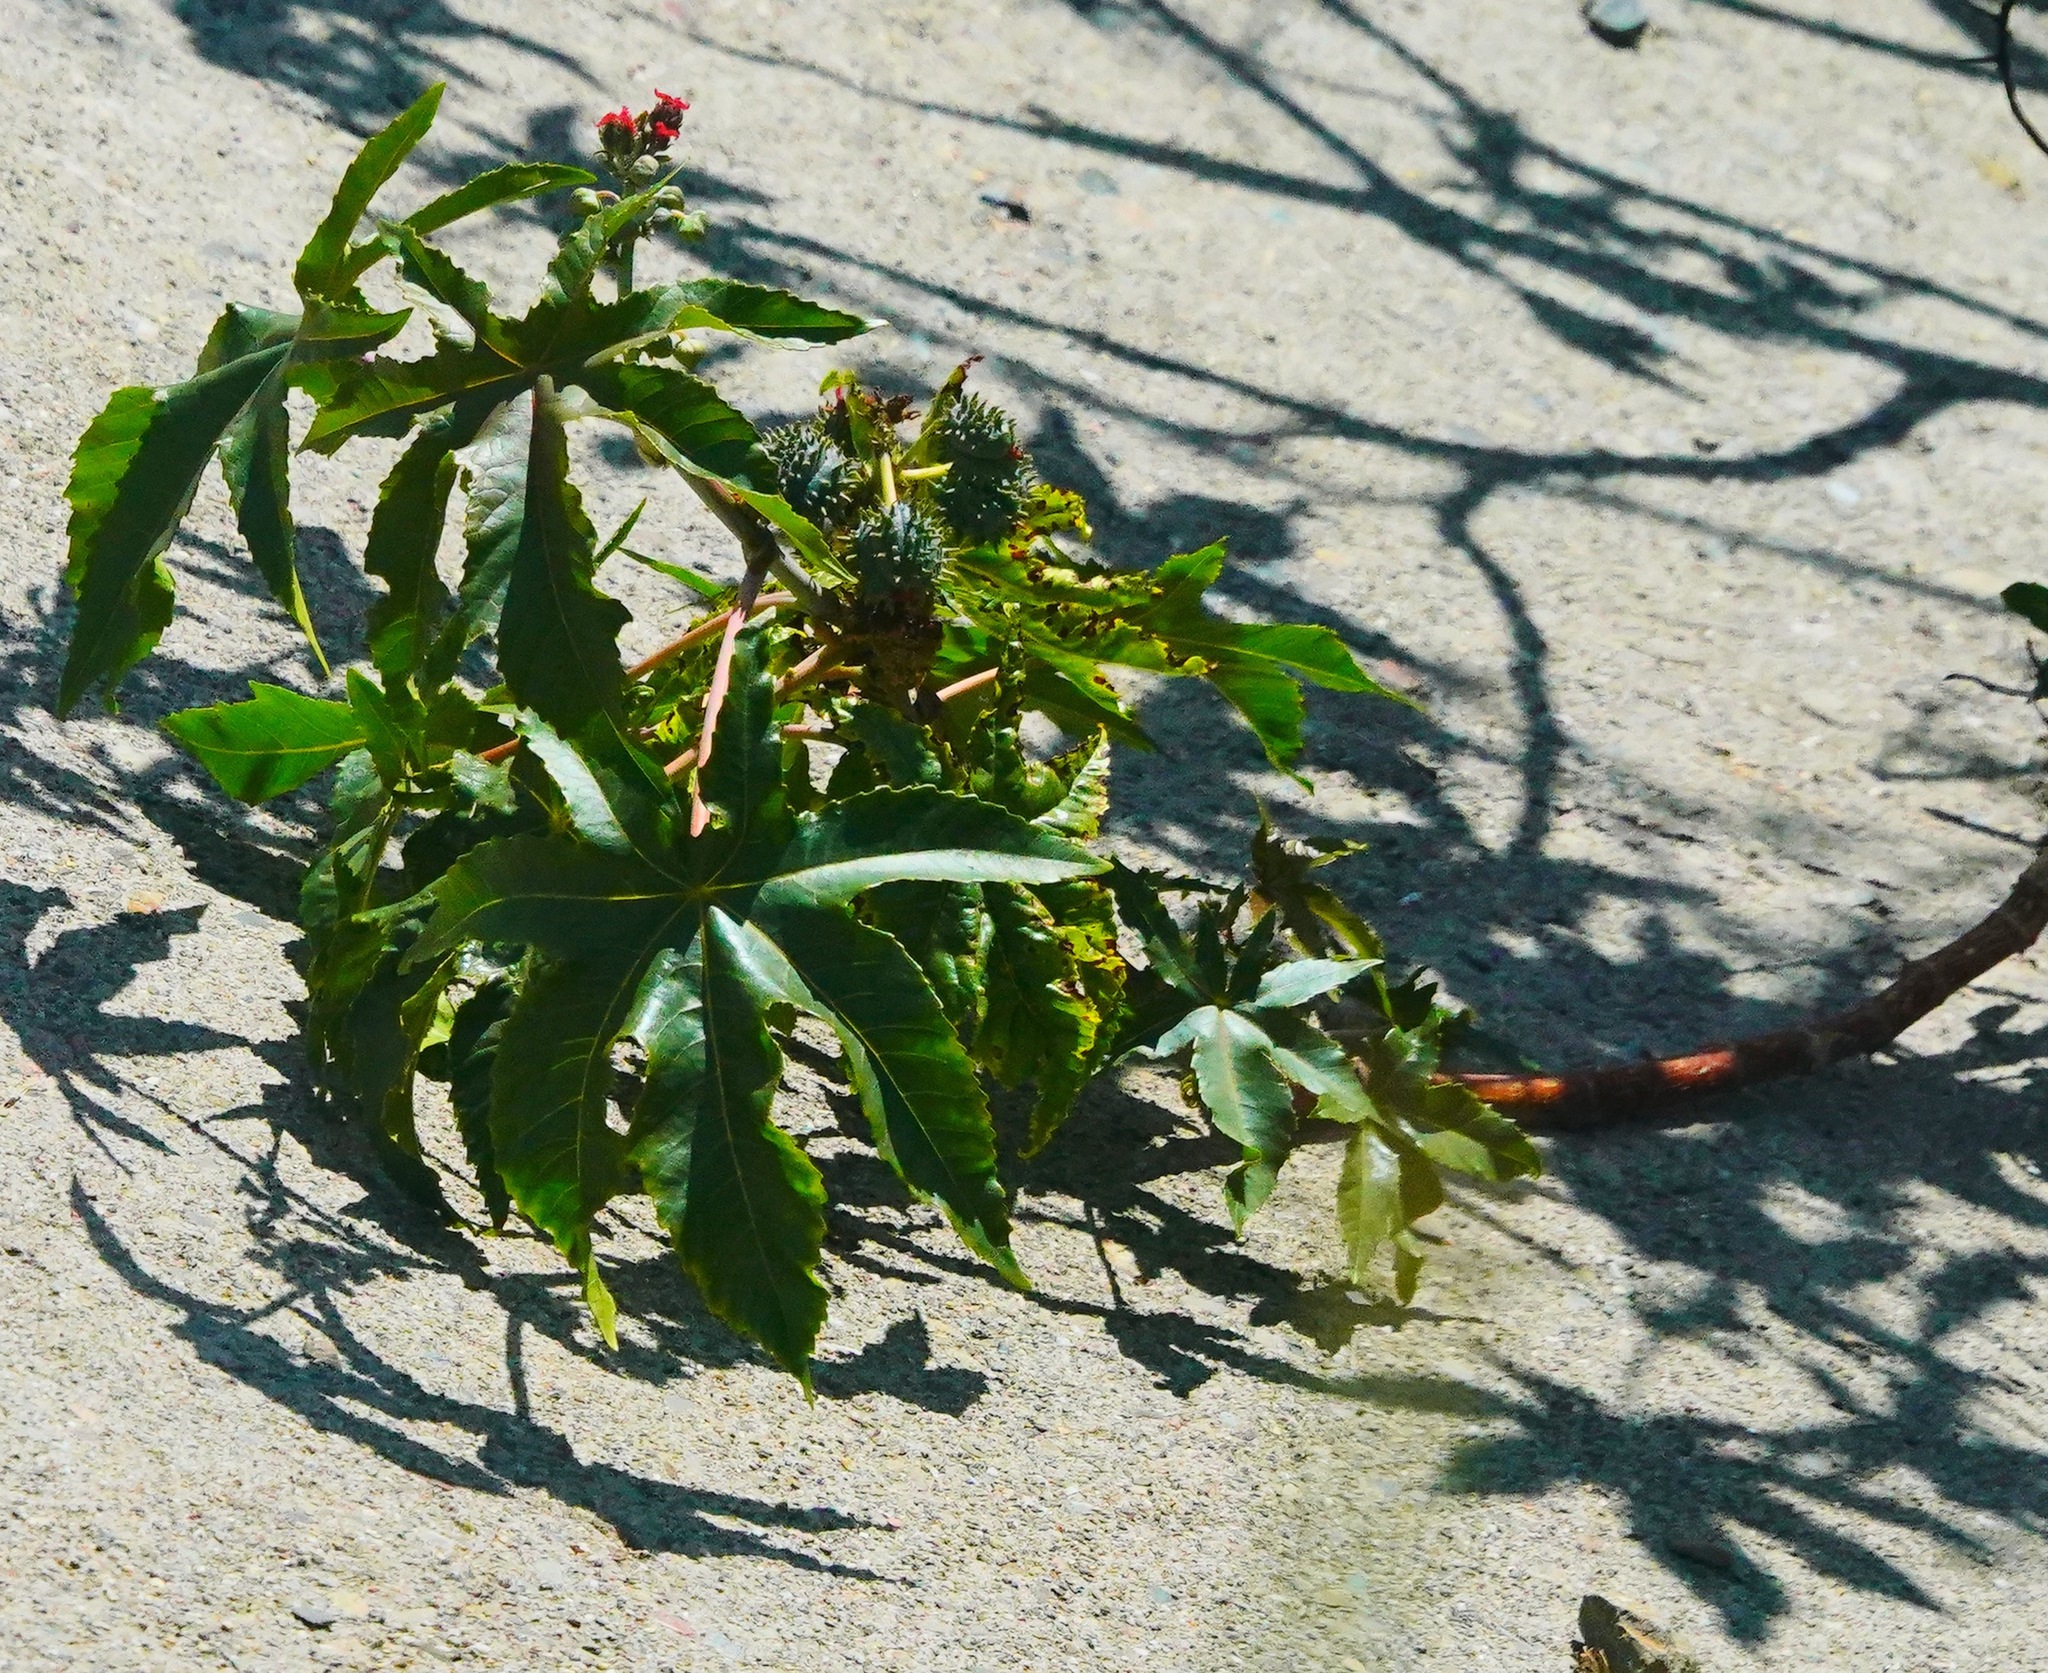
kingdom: Plantae
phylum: Tracheophyta
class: Magnoliopsida
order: Malpighiales
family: Euphorbiaceae
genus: Ricinus
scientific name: Ricinus communis
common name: Castor-oil-plant
